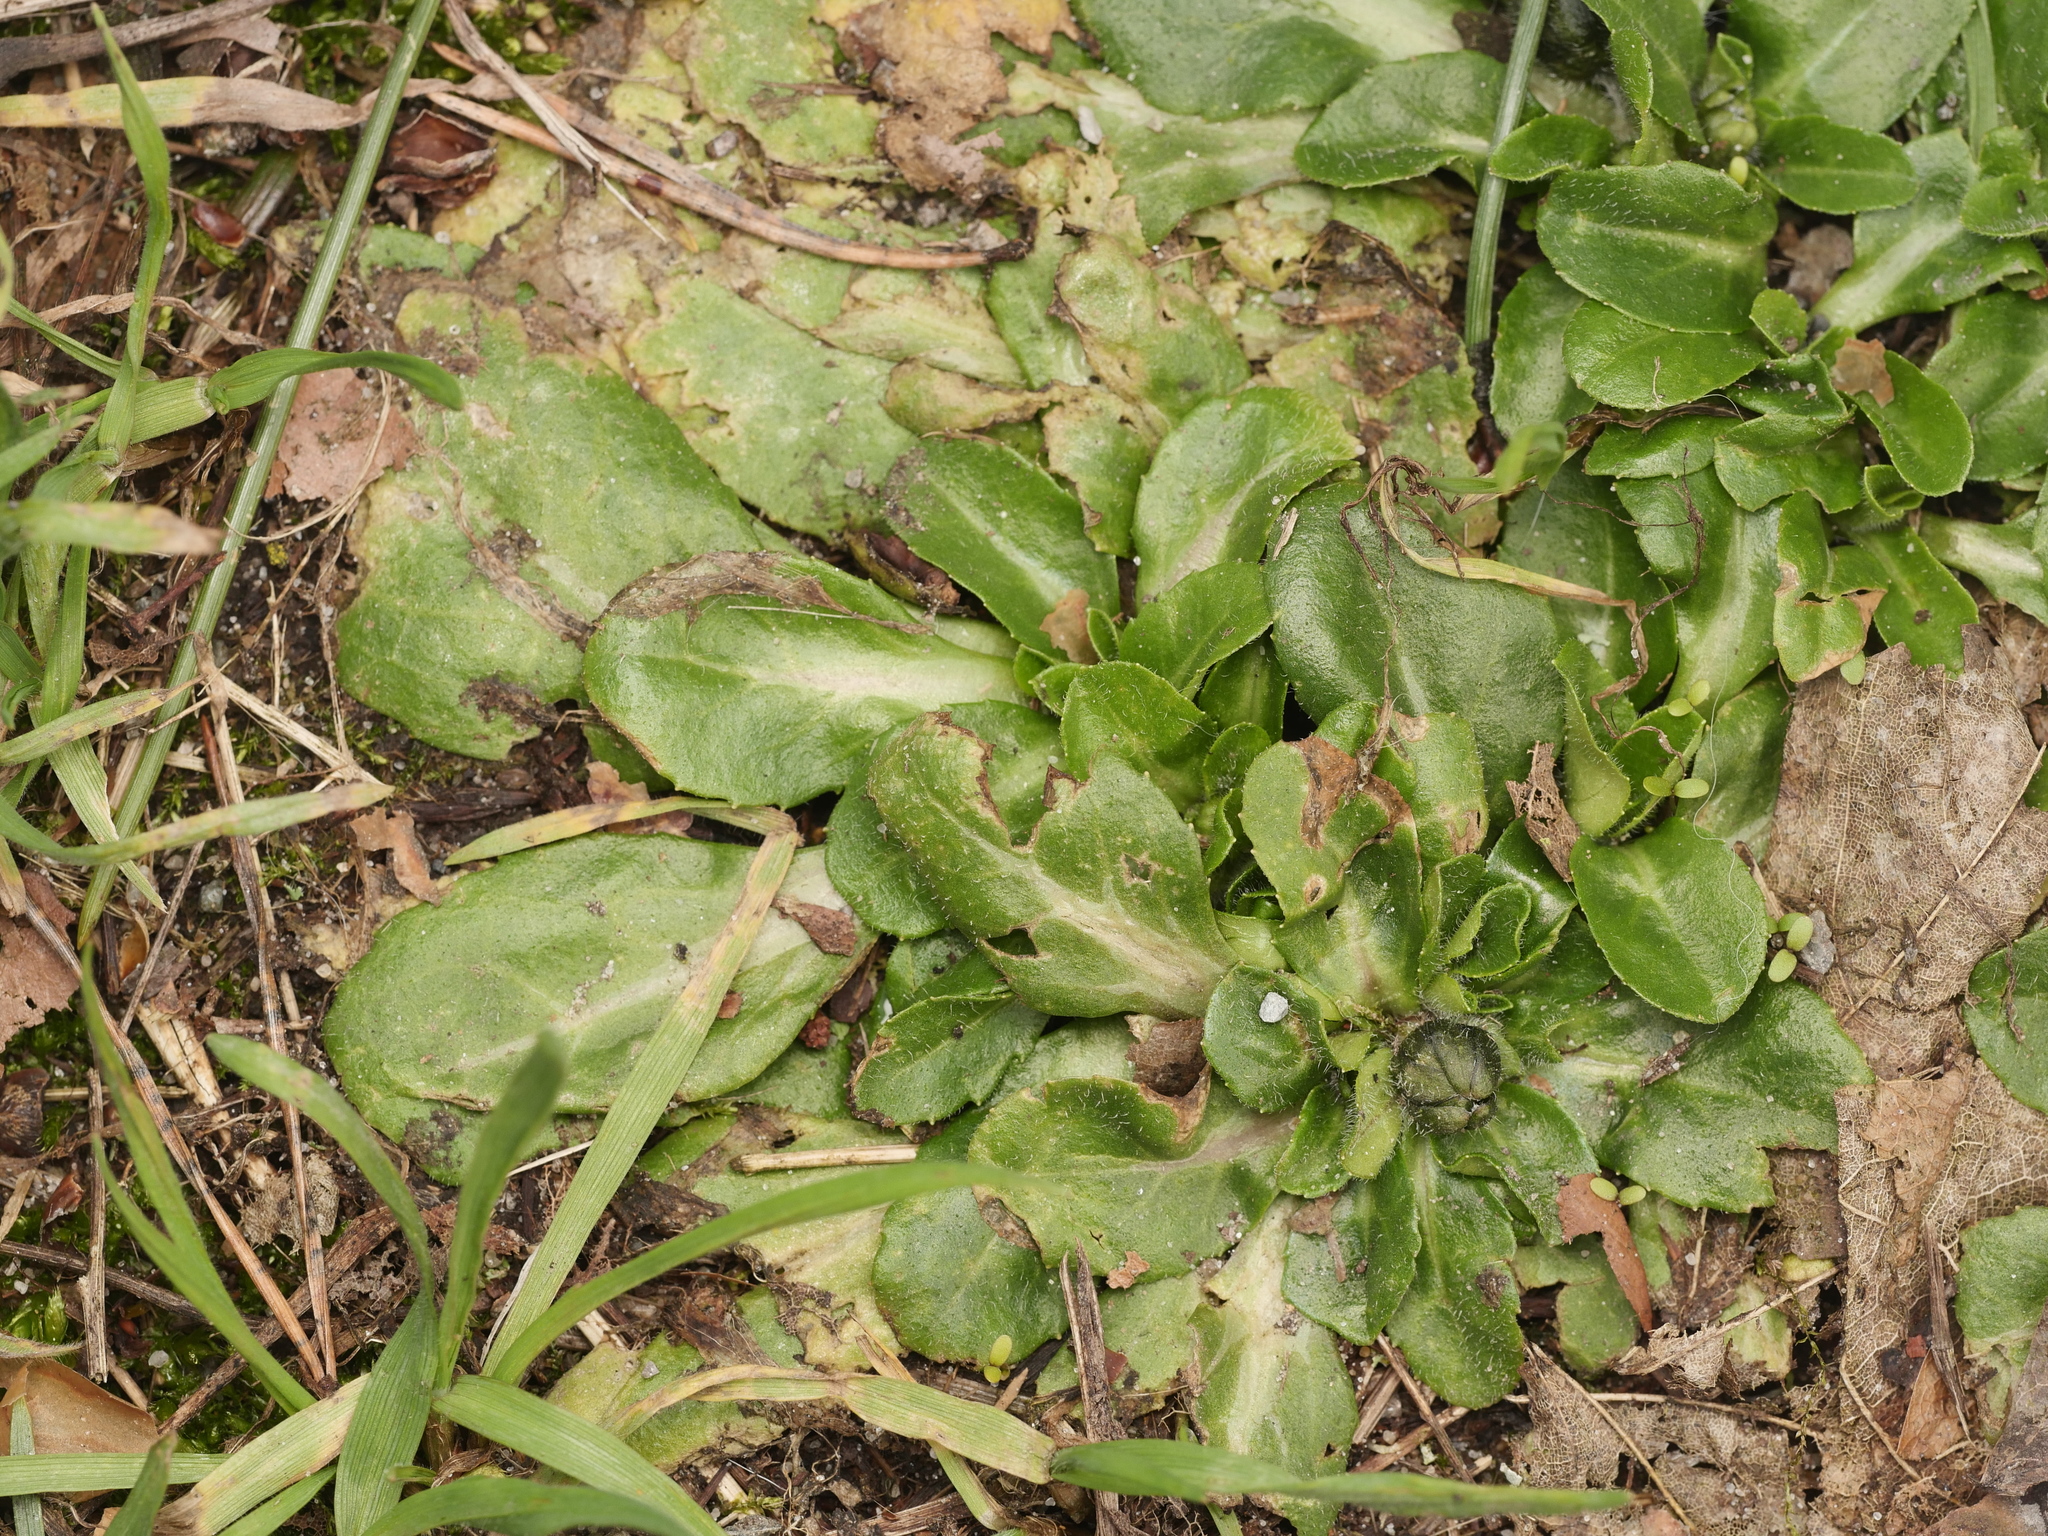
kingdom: Plantae
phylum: Tracheophyta
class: Magnoliopsida
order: Asterales
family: Asteraceae
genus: Bellis
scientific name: Bellis perennis
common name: Lawndaisy
